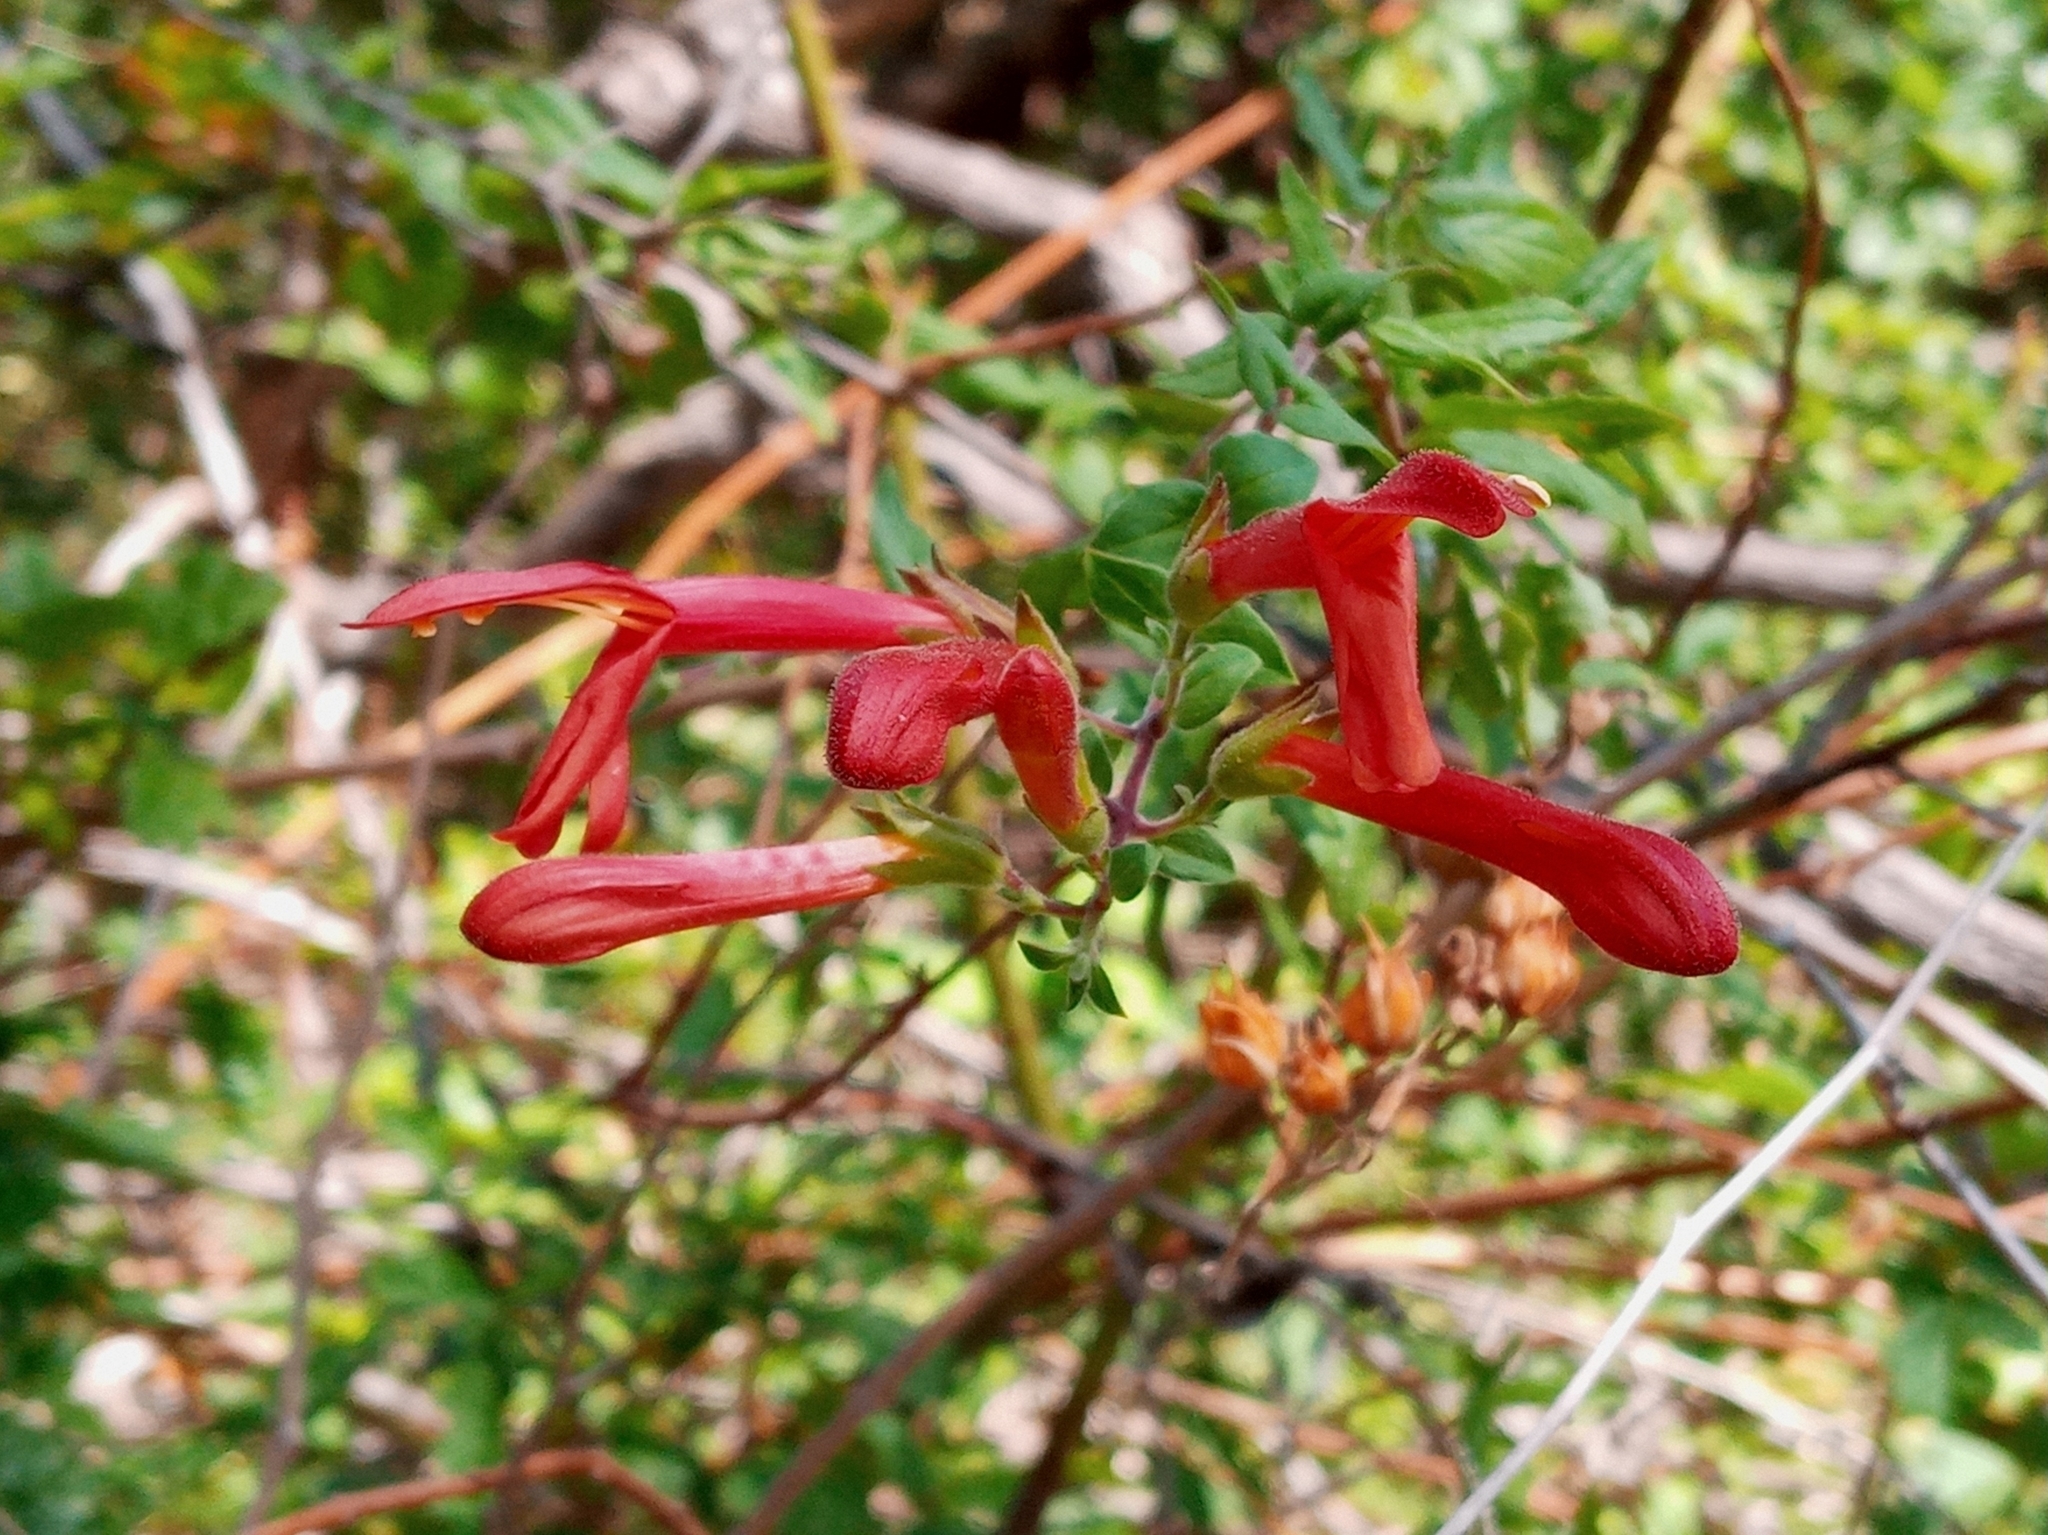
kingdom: Plantae
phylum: Tracheophyta
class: Magnoliopsida
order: Lamiales
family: Plantaginaceae
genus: Keckiella
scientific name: Keckiella cordifolia
